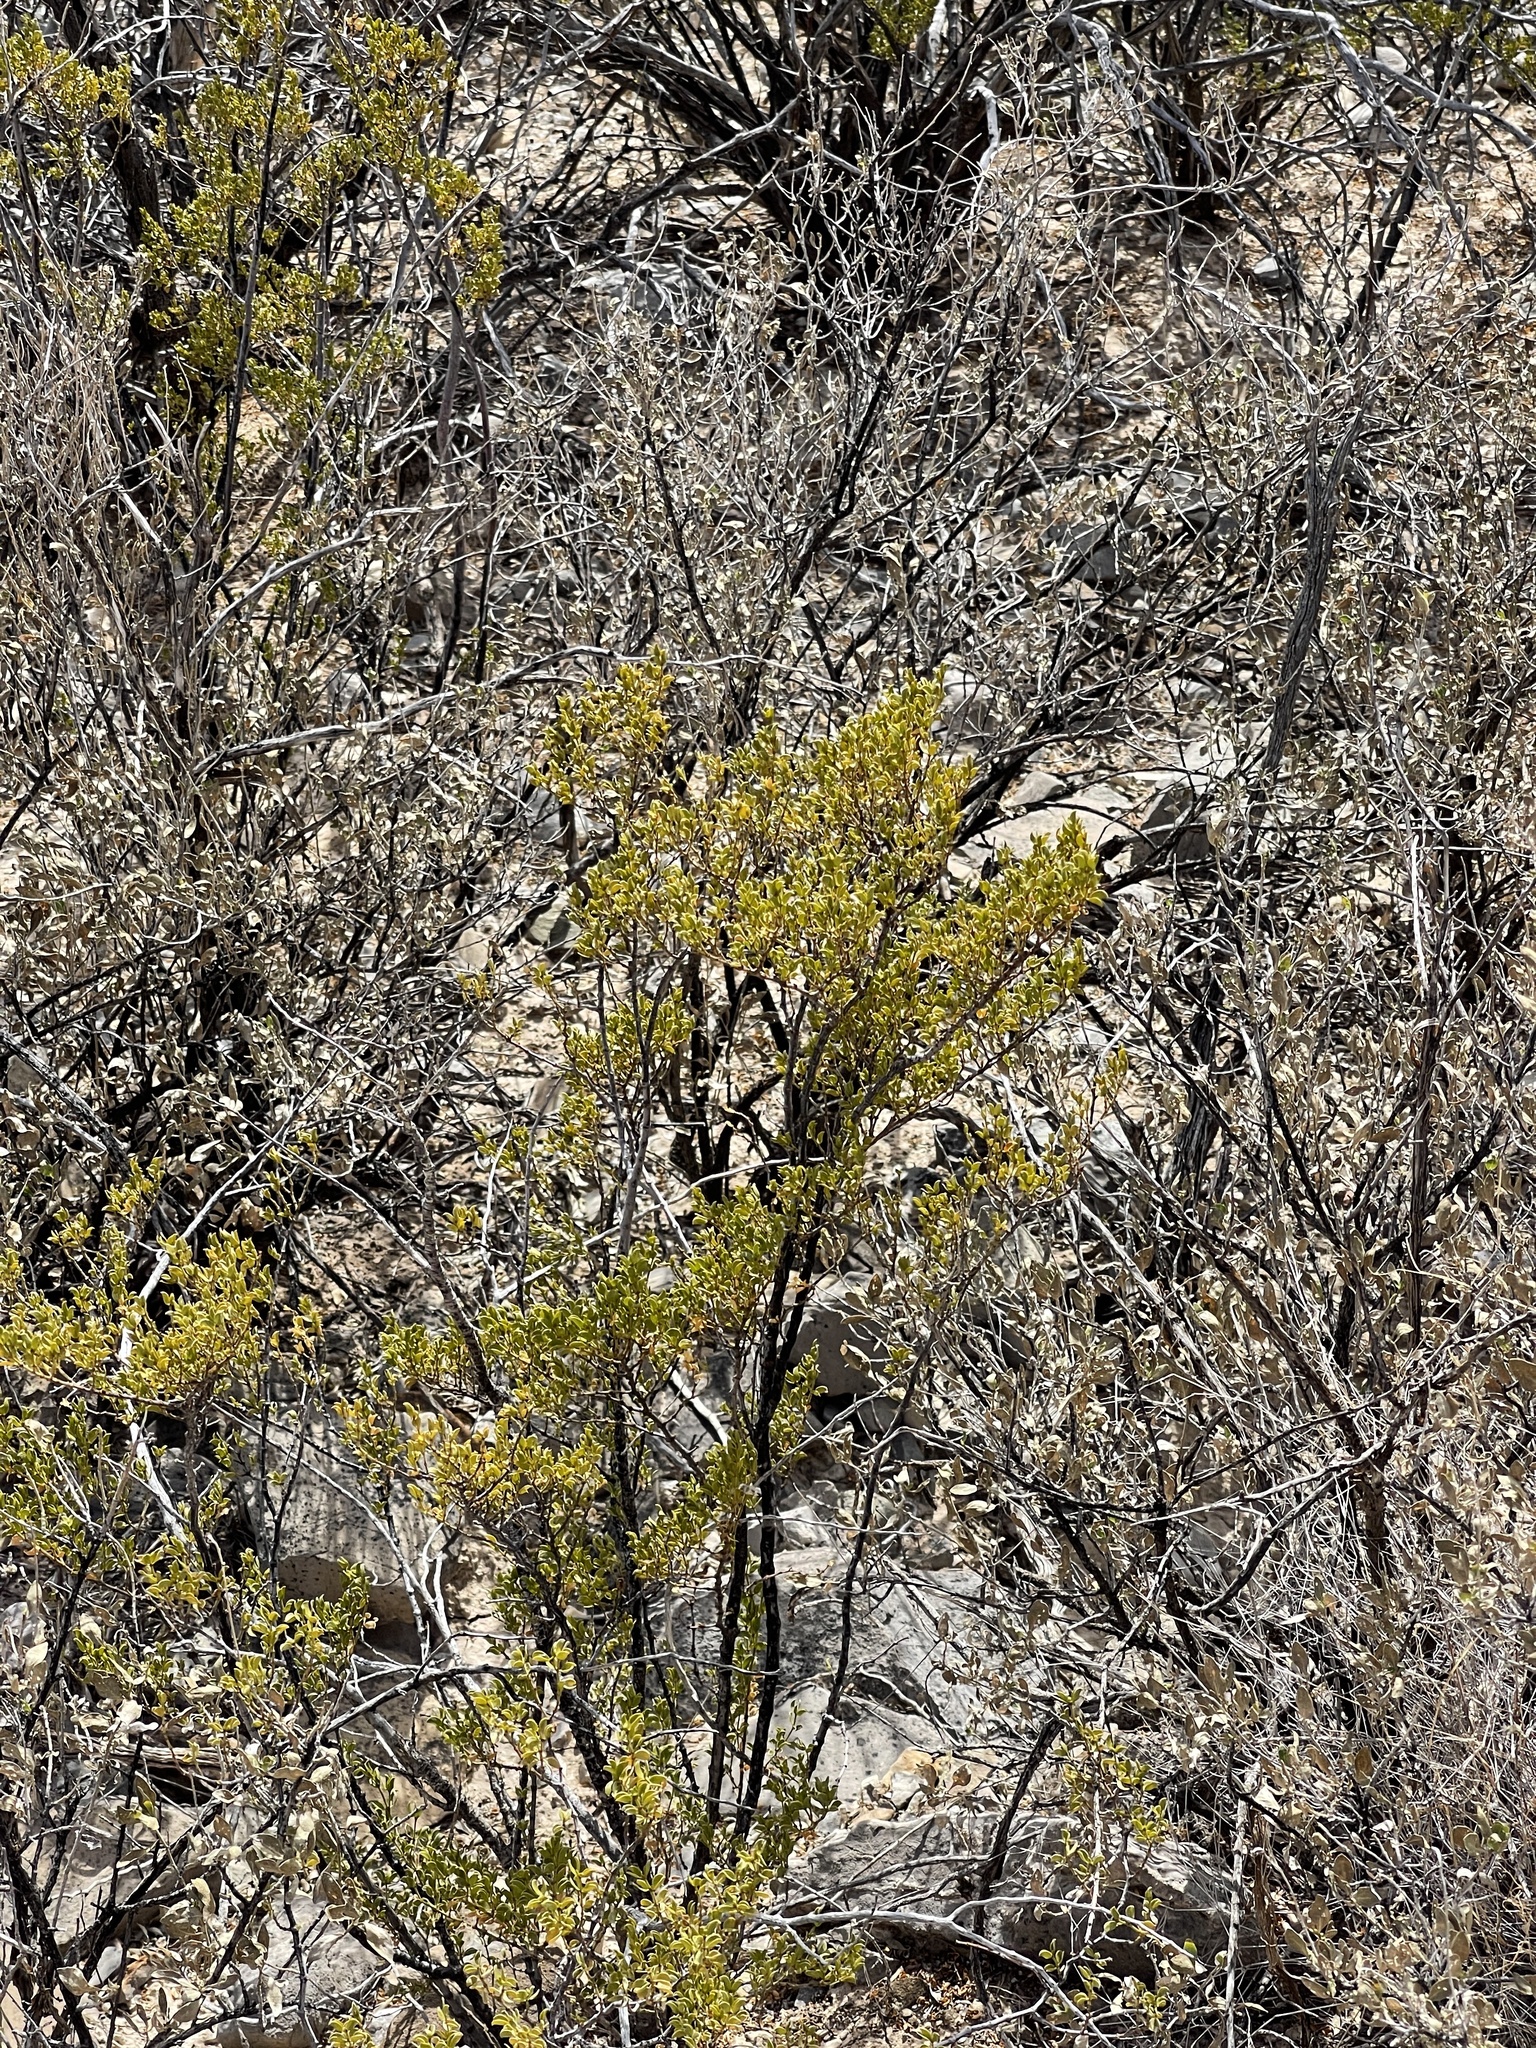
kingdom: Plantae
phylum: Tracheophyta
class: Magnoliopsida
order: Zygophyllales
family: Zygophyllaceae
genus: Larrea
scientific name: Larrea tridentata
